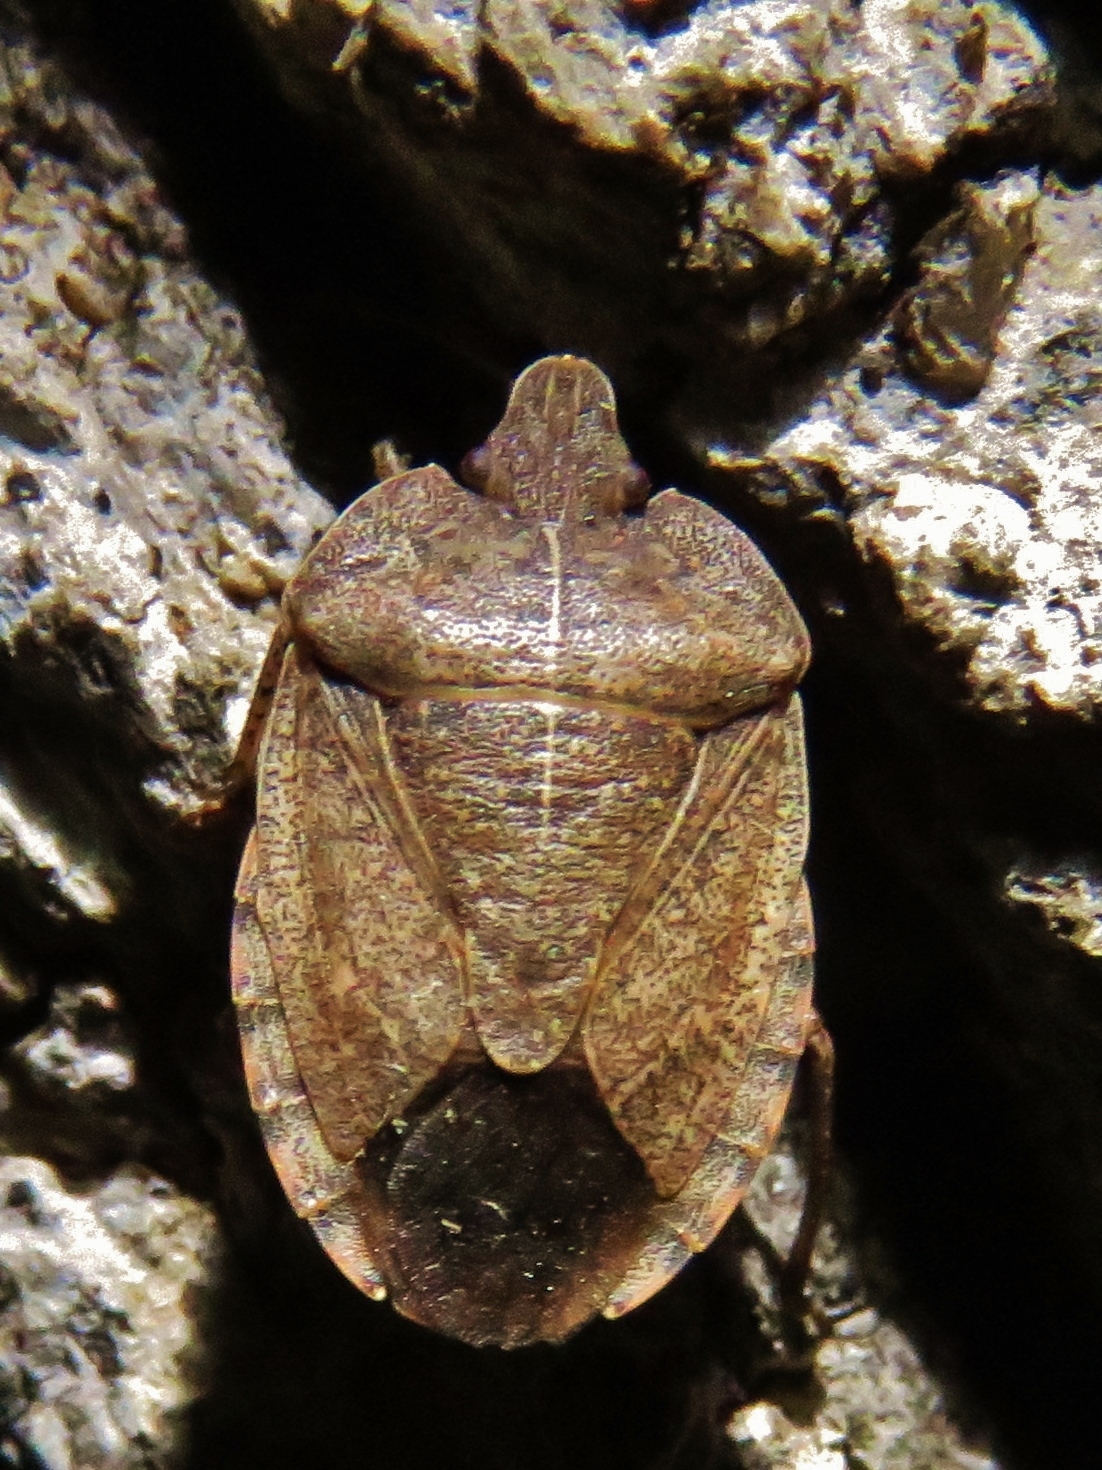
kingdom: Animalia
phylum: Arthropoda
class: Insecta
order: Hemiptera
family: Pentatomidae
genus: Menecles
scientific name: Menecles insertus
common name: Elf shoe stink bug
